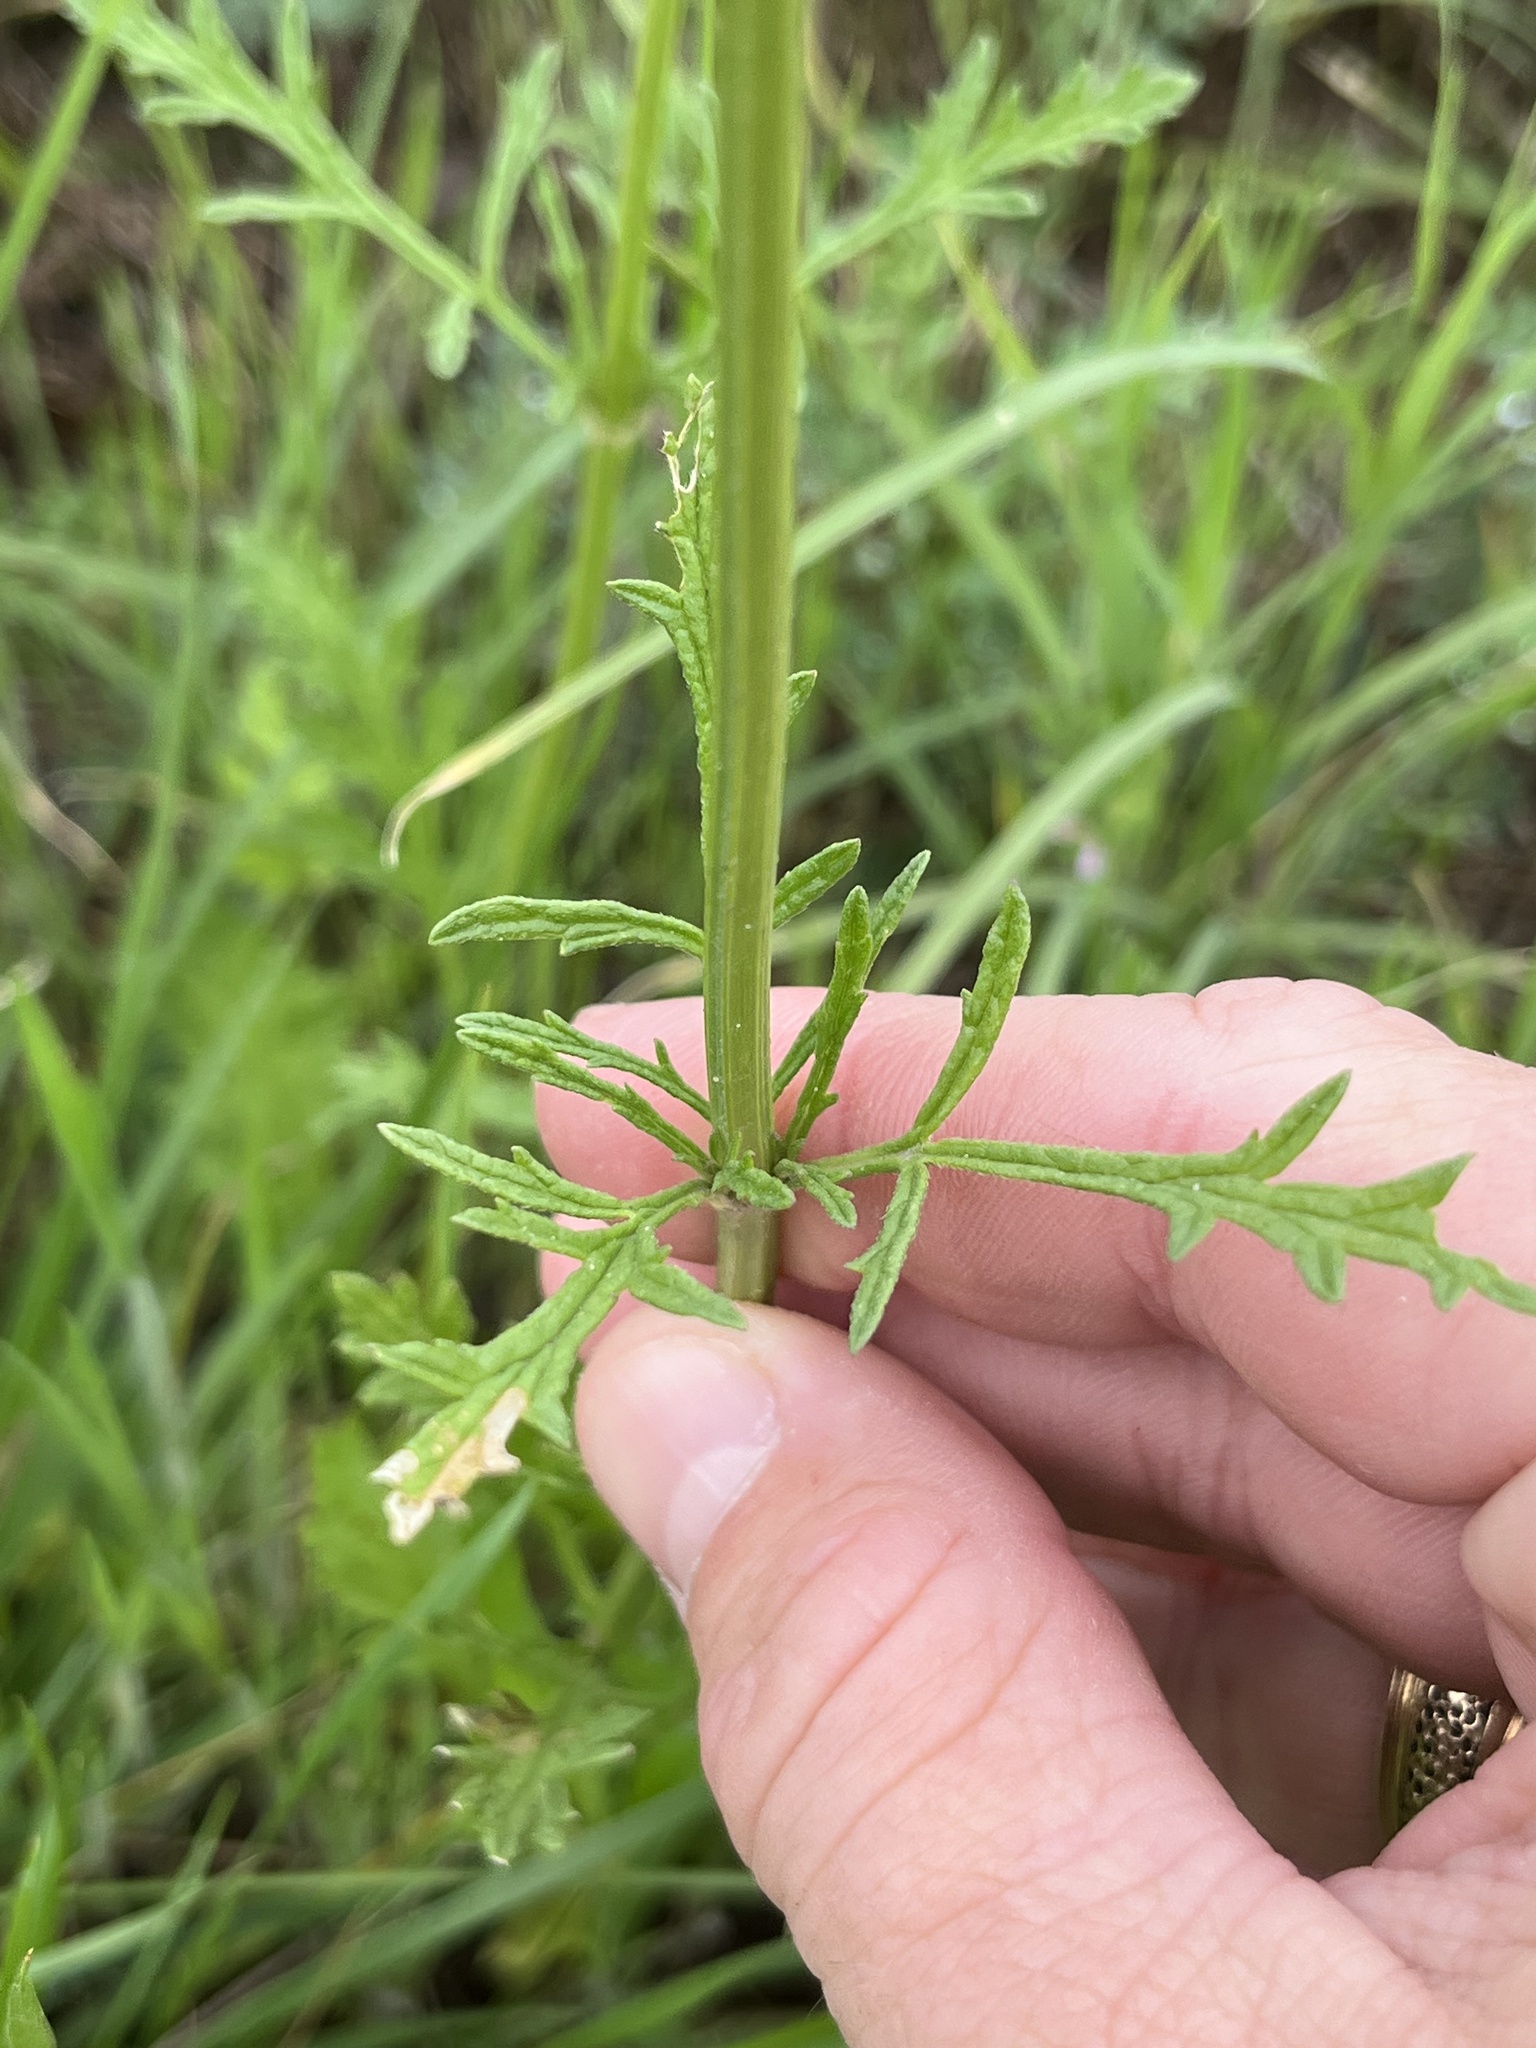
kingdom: Plantae
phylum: Tracheophyta
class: Magnoliopsida
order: Lamiales
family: Verbenaceae
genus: Verbena
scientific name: Verbena halei
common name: Texas vervain
